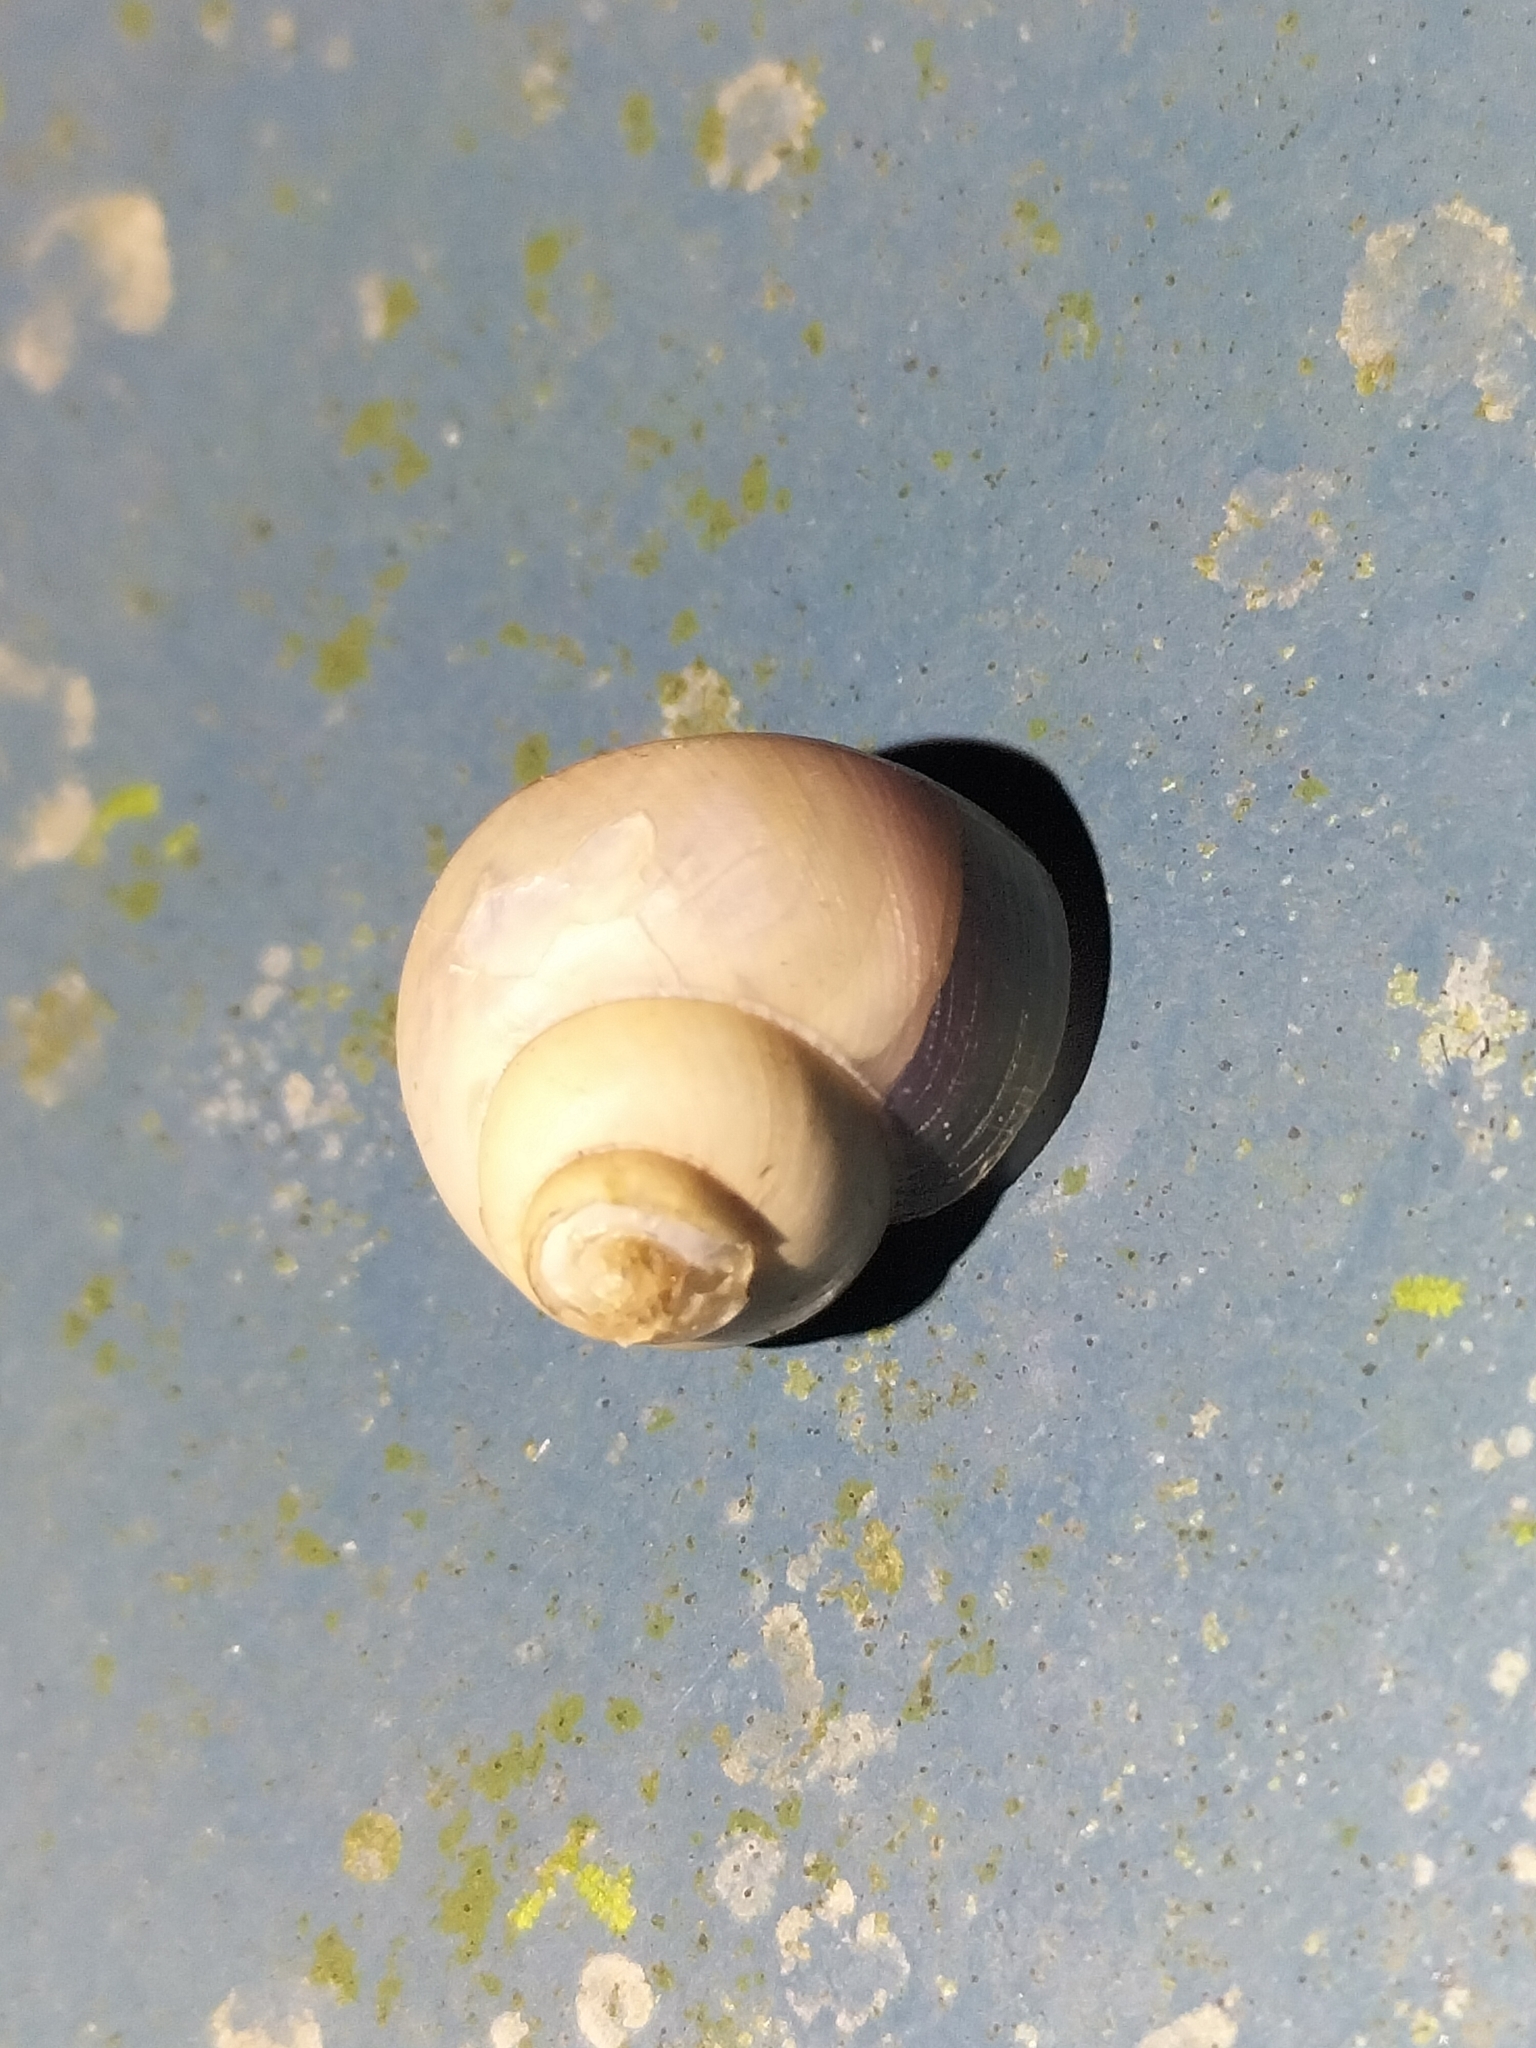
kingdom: Animalia
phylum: Mollusca
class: Gastropoda
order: Architaenioglossa
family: Cyclophoridae
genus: Leptopoma
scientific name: Leptopoma perlucidum
